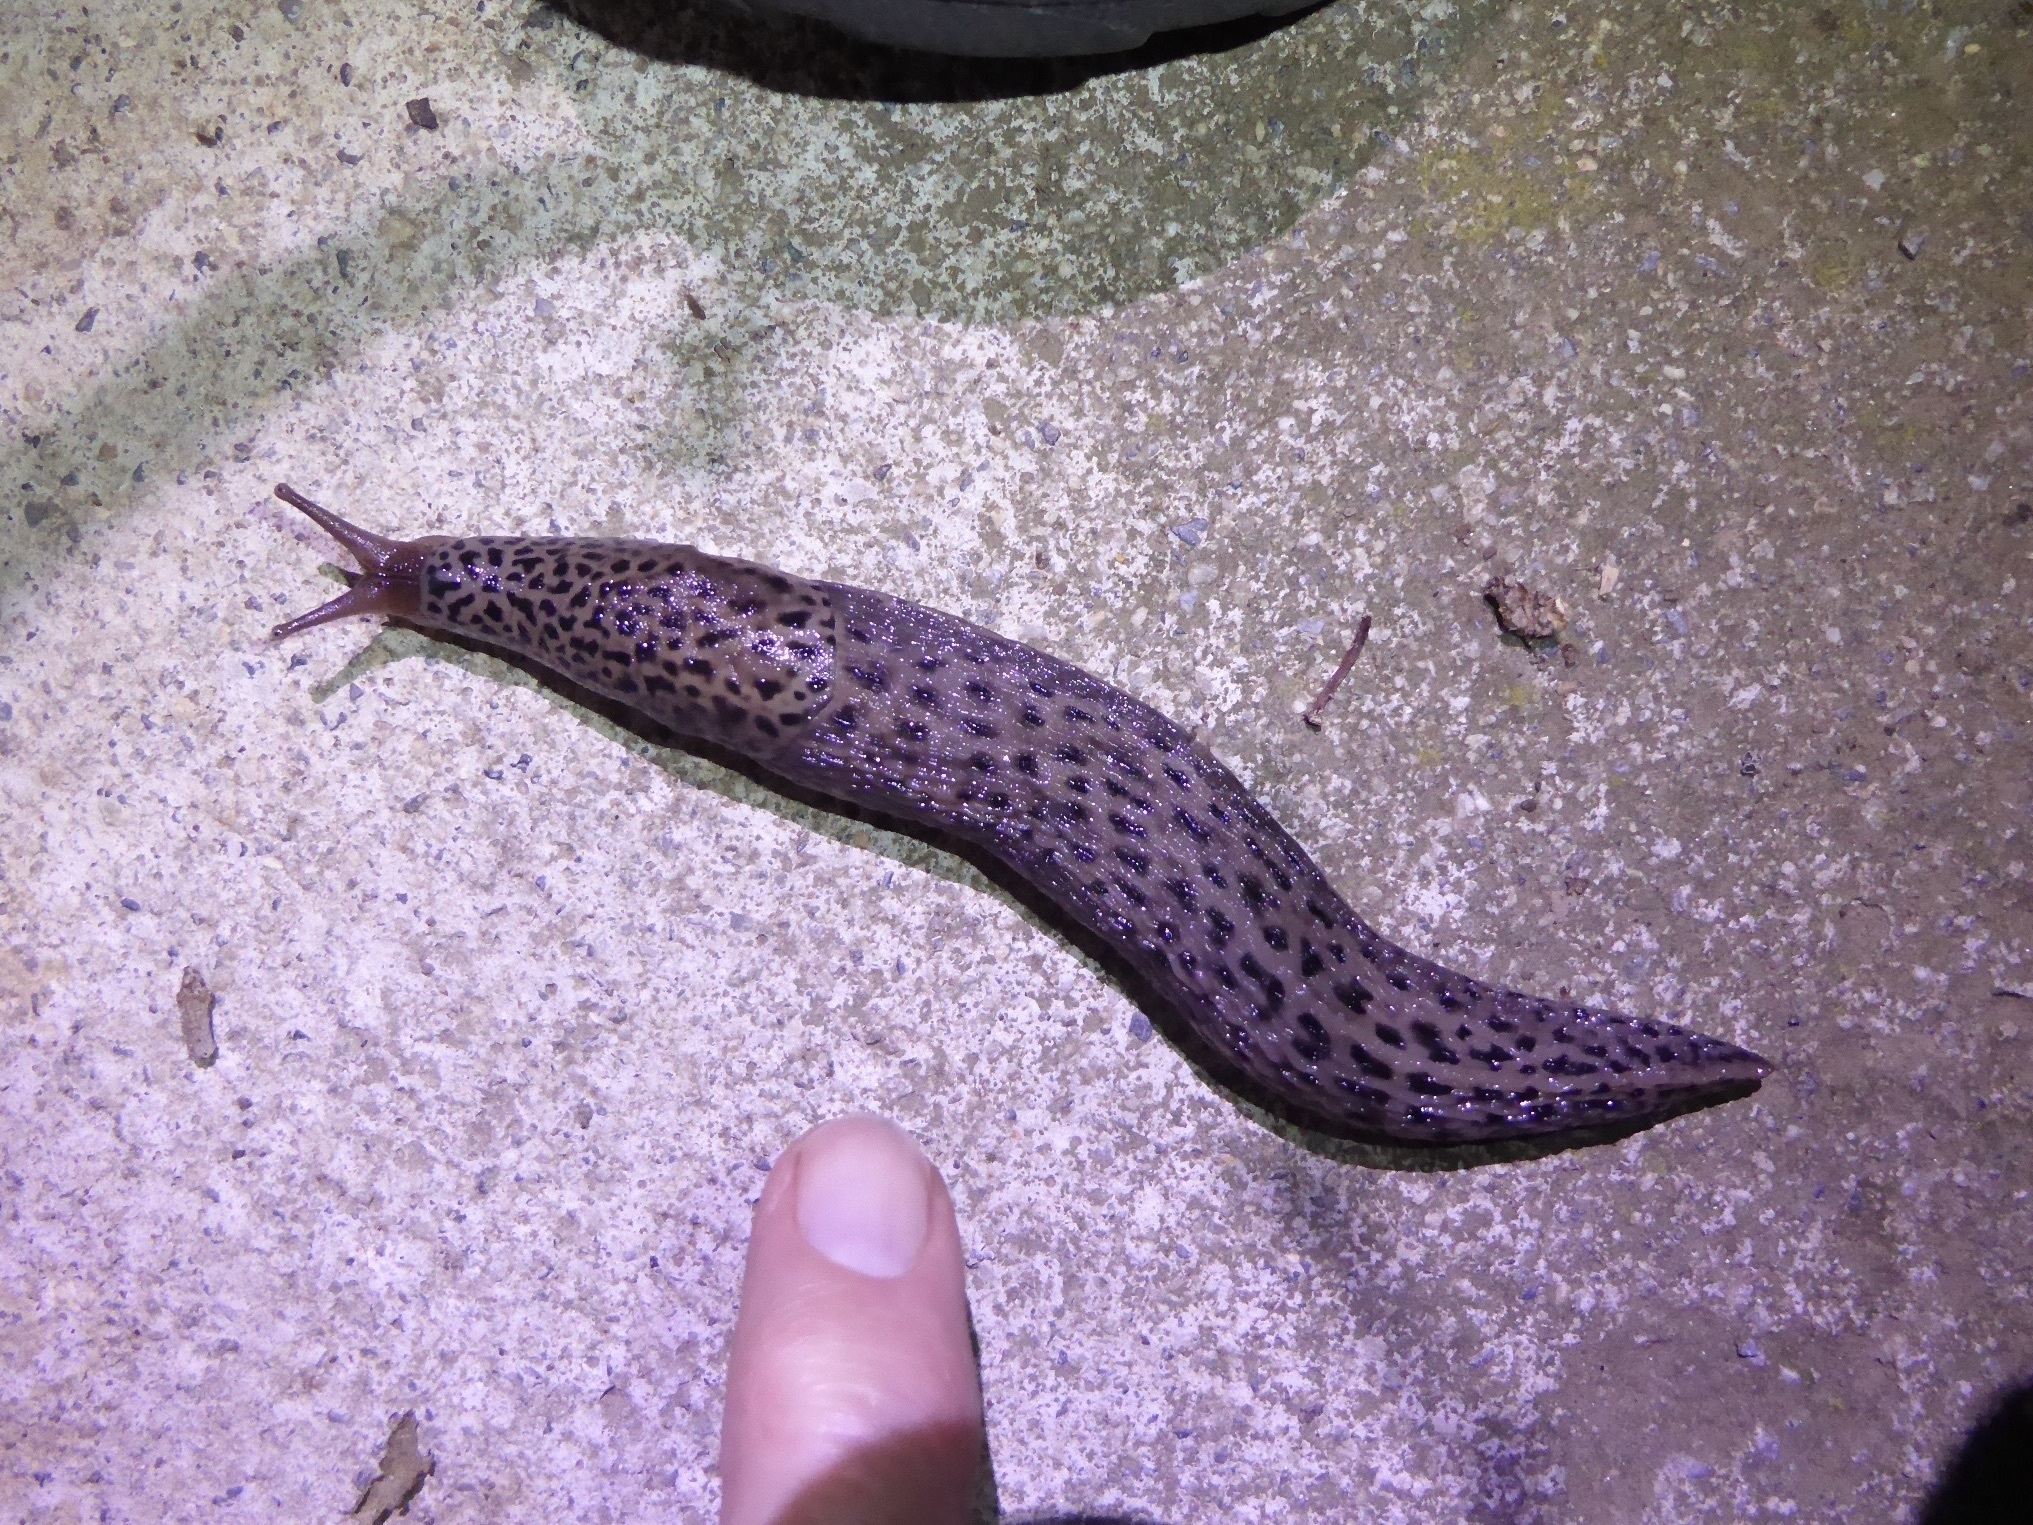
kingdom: Animalia
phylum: Mollusca
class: Gastropoda
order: Stylommatophora
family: Limacidae
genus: Limax
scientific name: Limax maximus
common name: Great grey slug
